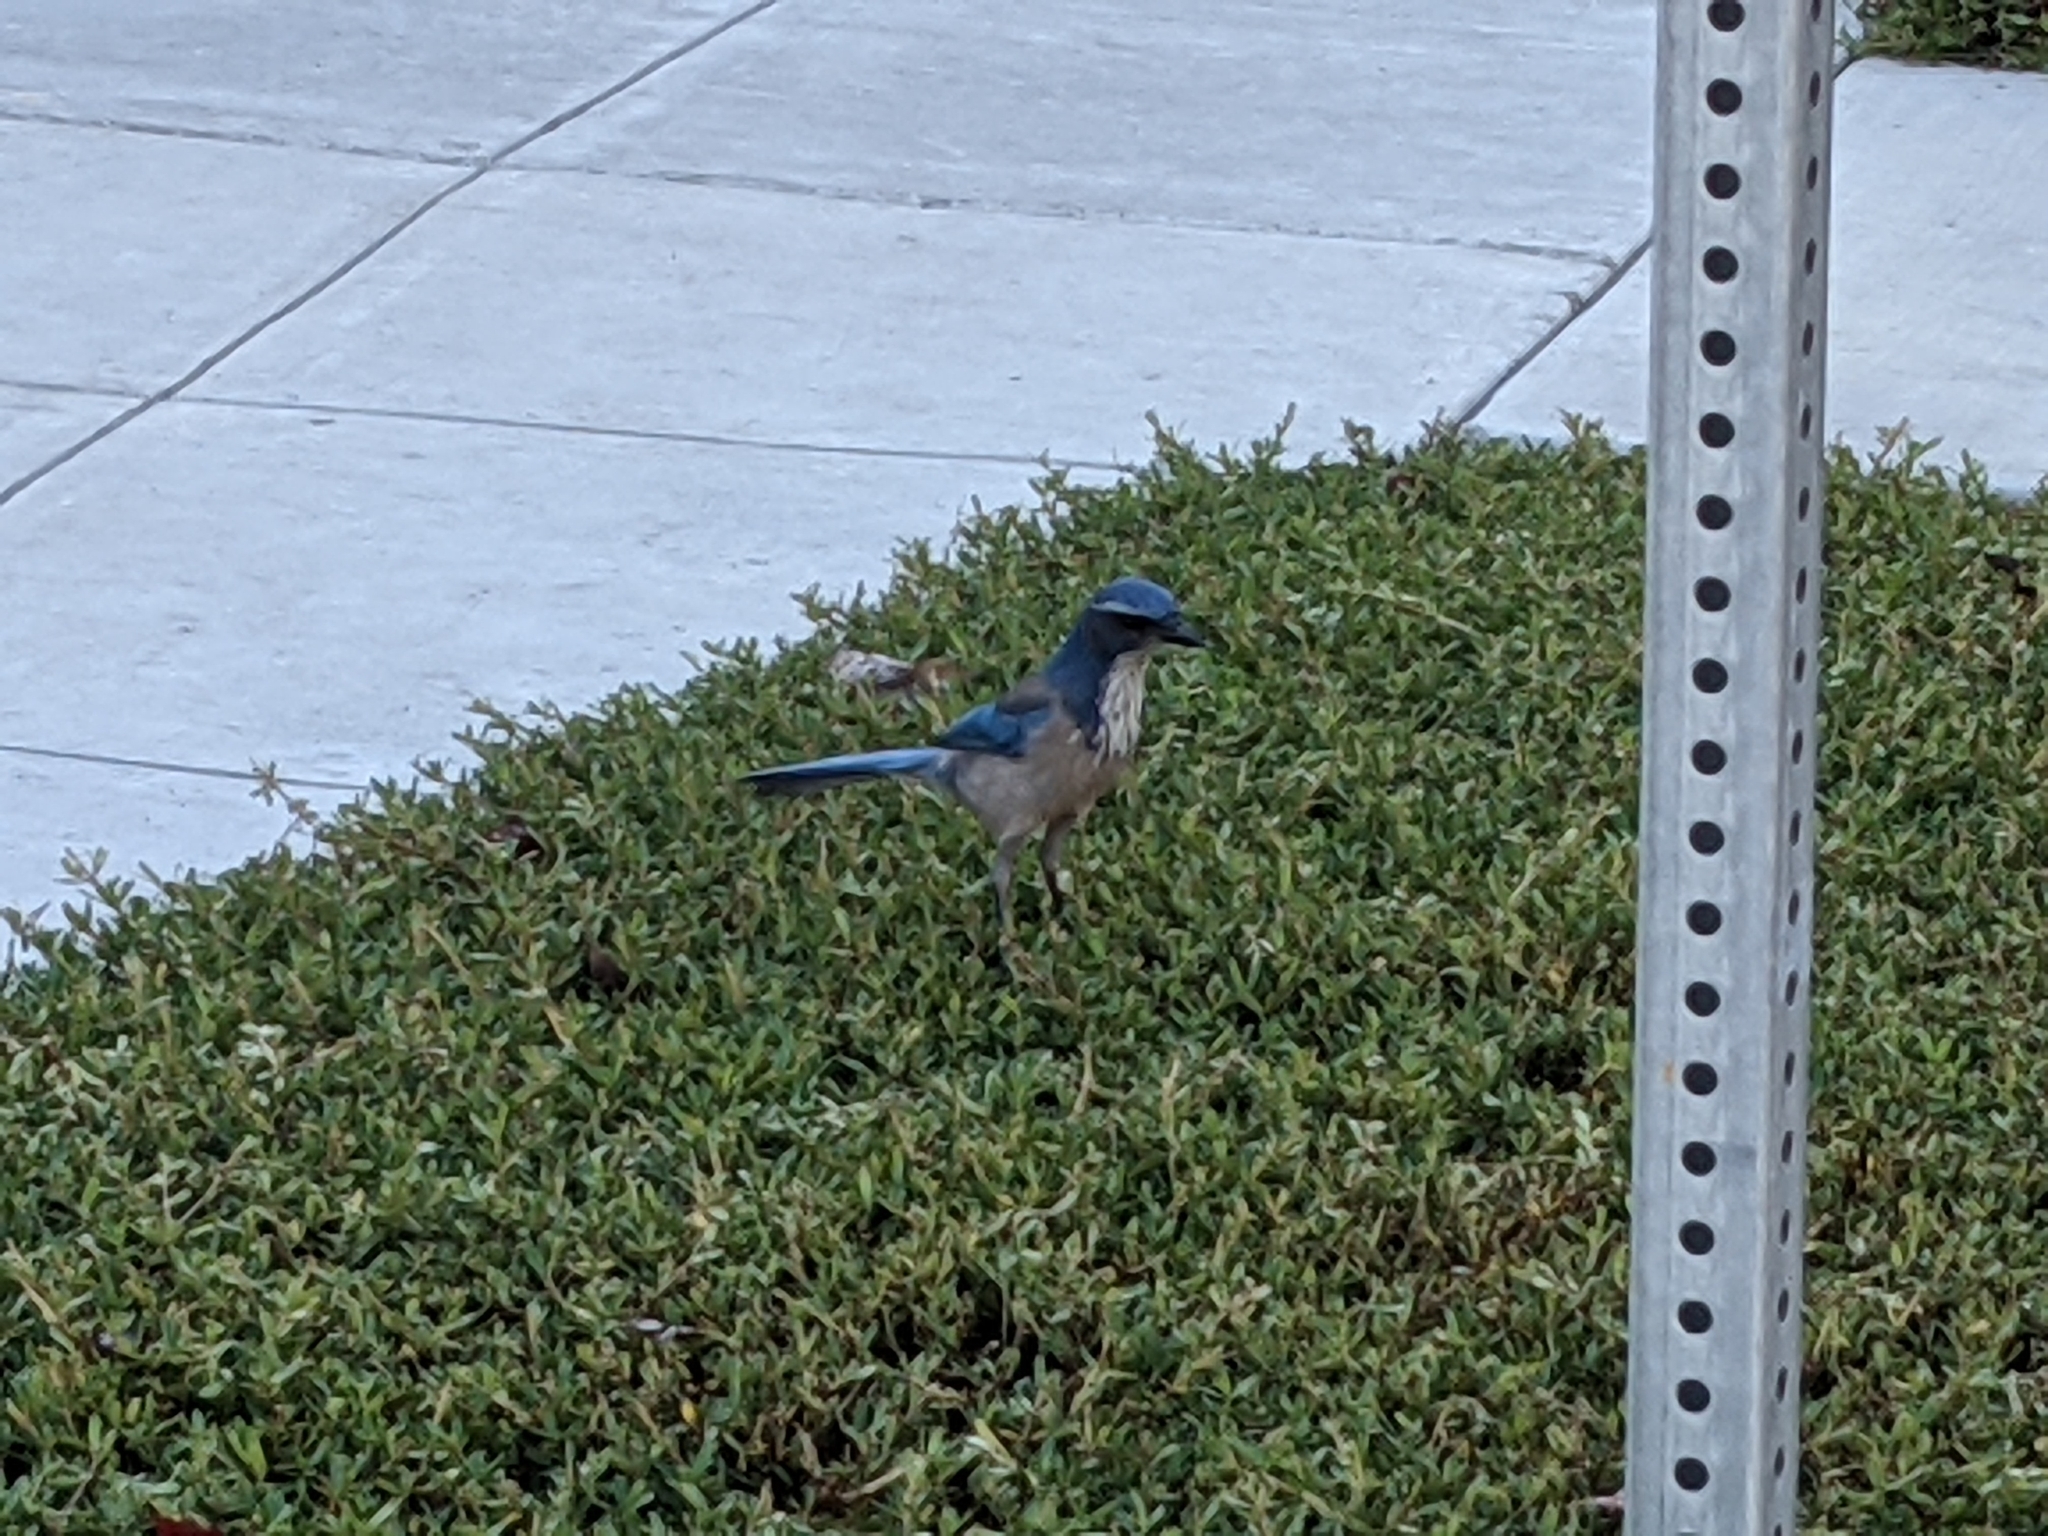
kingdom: Animalia
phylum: Chordata
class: Aves
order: Passeriformes
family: Corvidae
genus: Aphelocoma
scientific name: Aphelocoma californica
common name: California scrub-jay
